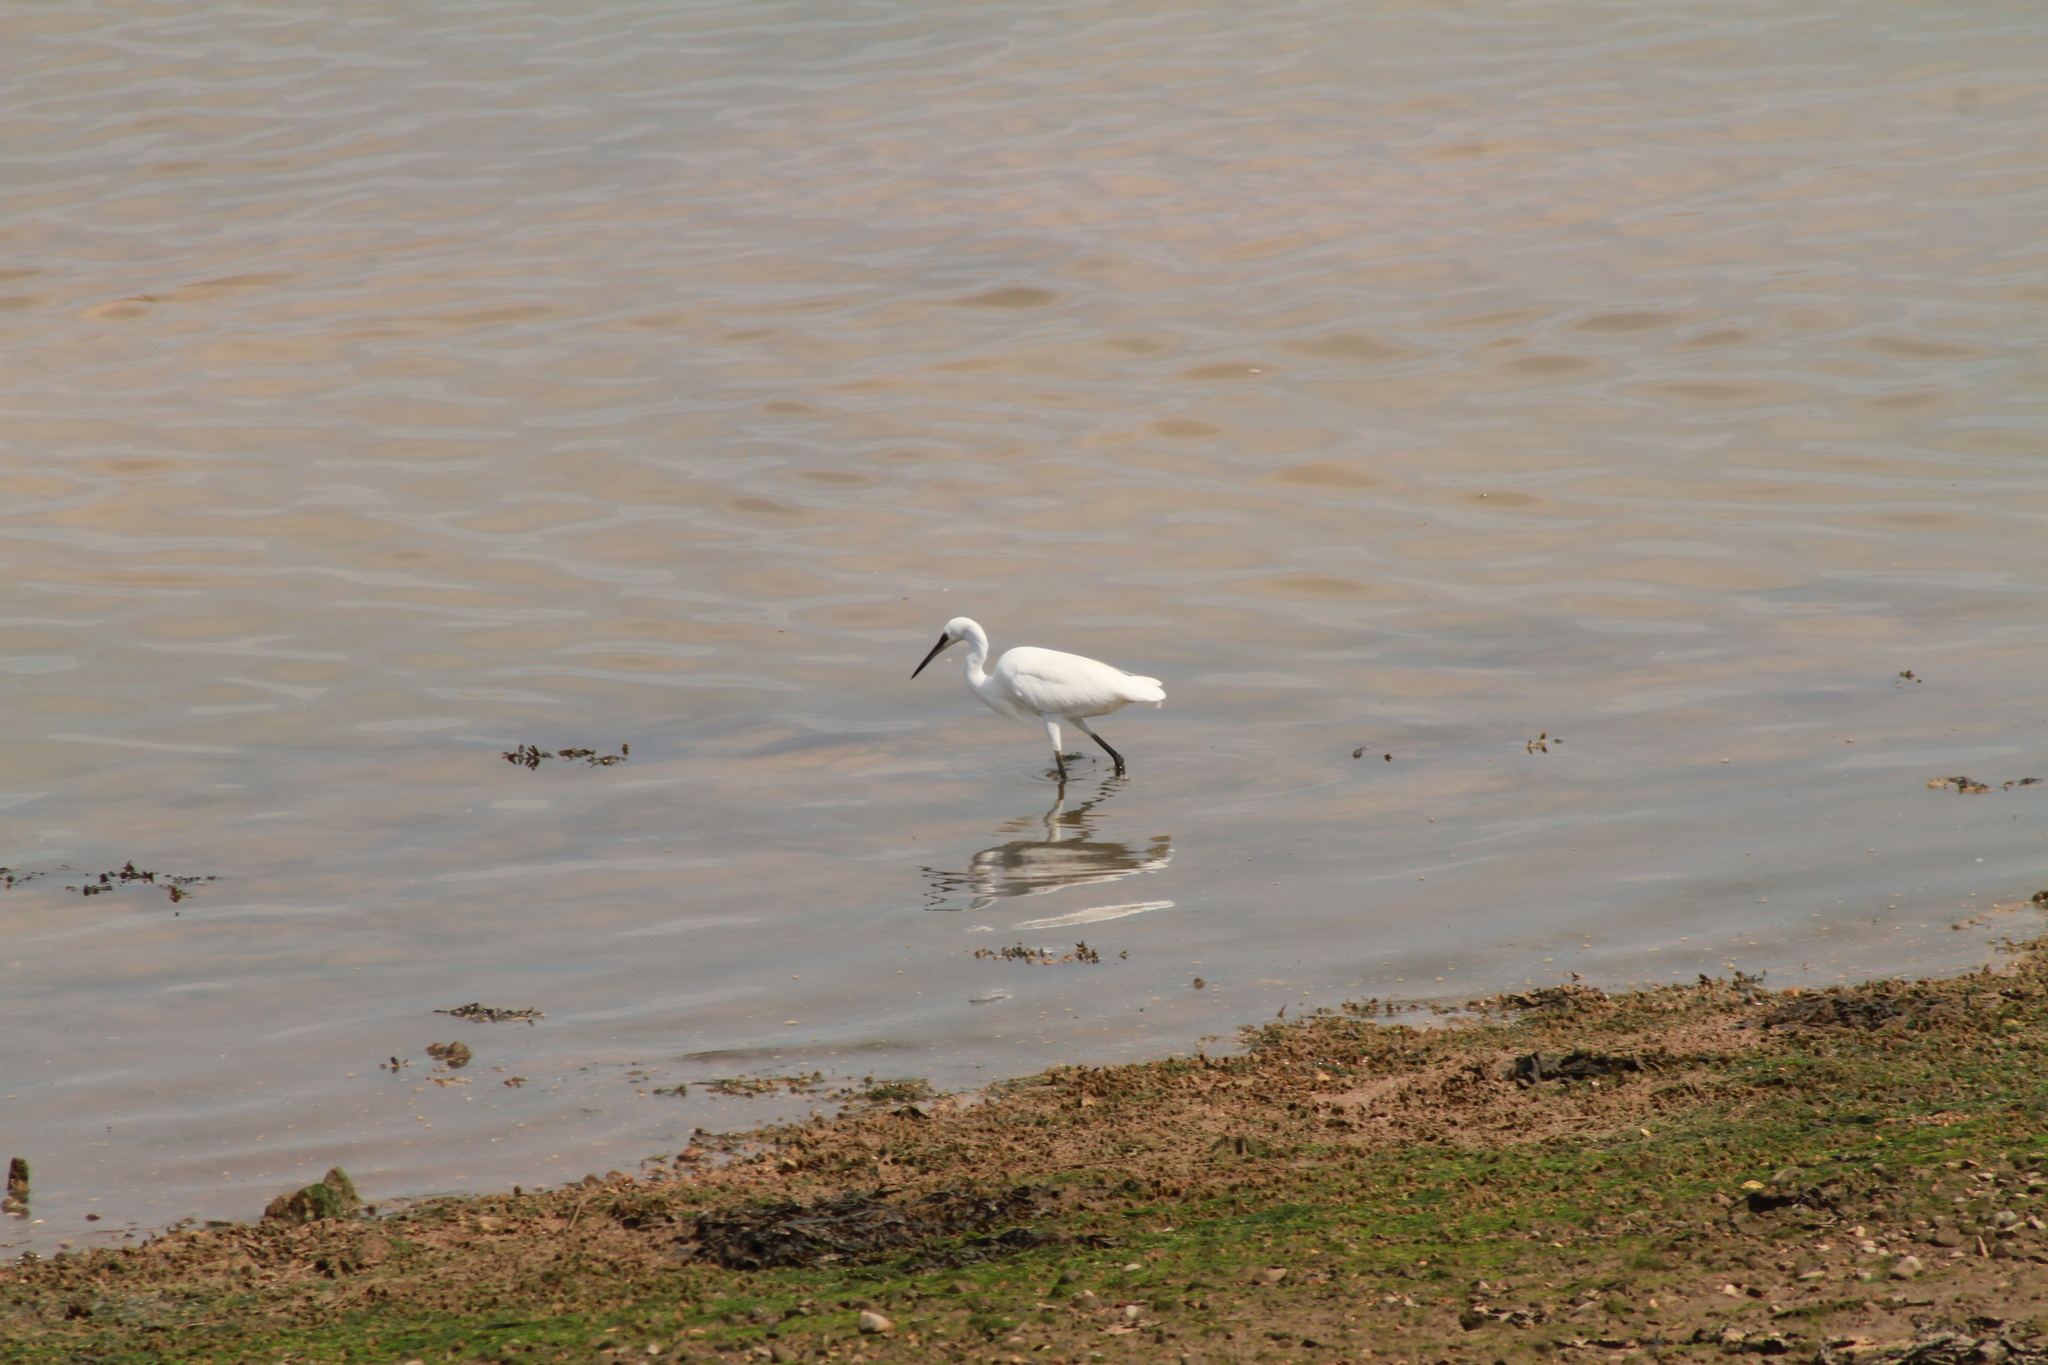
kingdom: Animalia
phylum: Chordata
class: Aves
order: Pelecaniformes
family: Ardeidae
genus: Egretta
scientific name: Egretta garzetta
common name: Little egret
